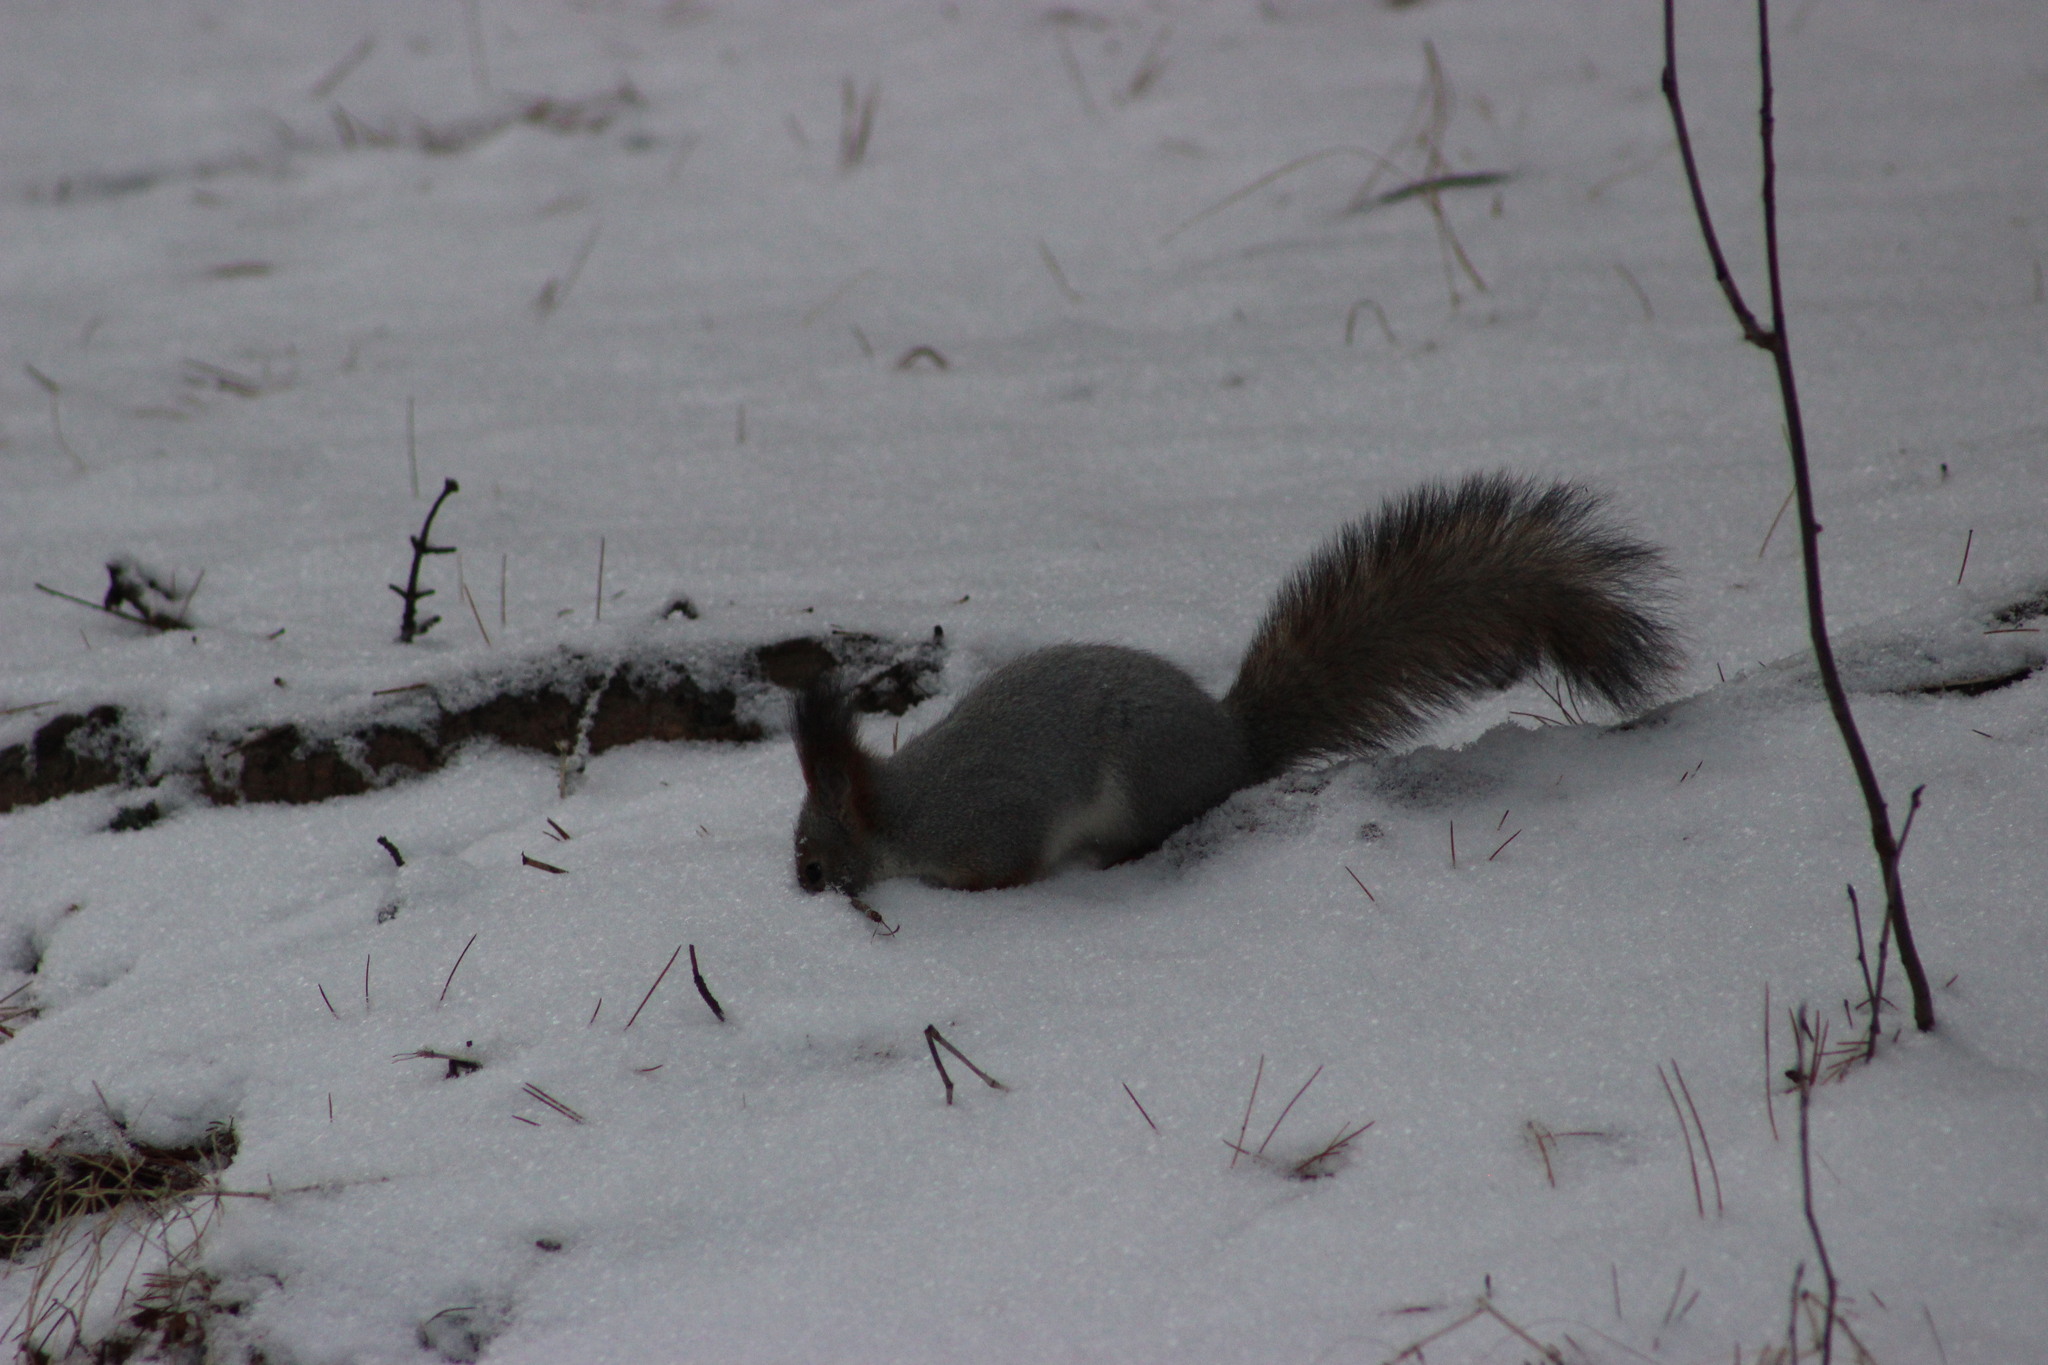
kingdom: Animalia
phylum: Chordata
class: Mammalia
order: Rodentia
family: Sciuridae
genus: Sciurus
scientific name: Sciurus vulgaris
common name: Eurasian red squirrel
